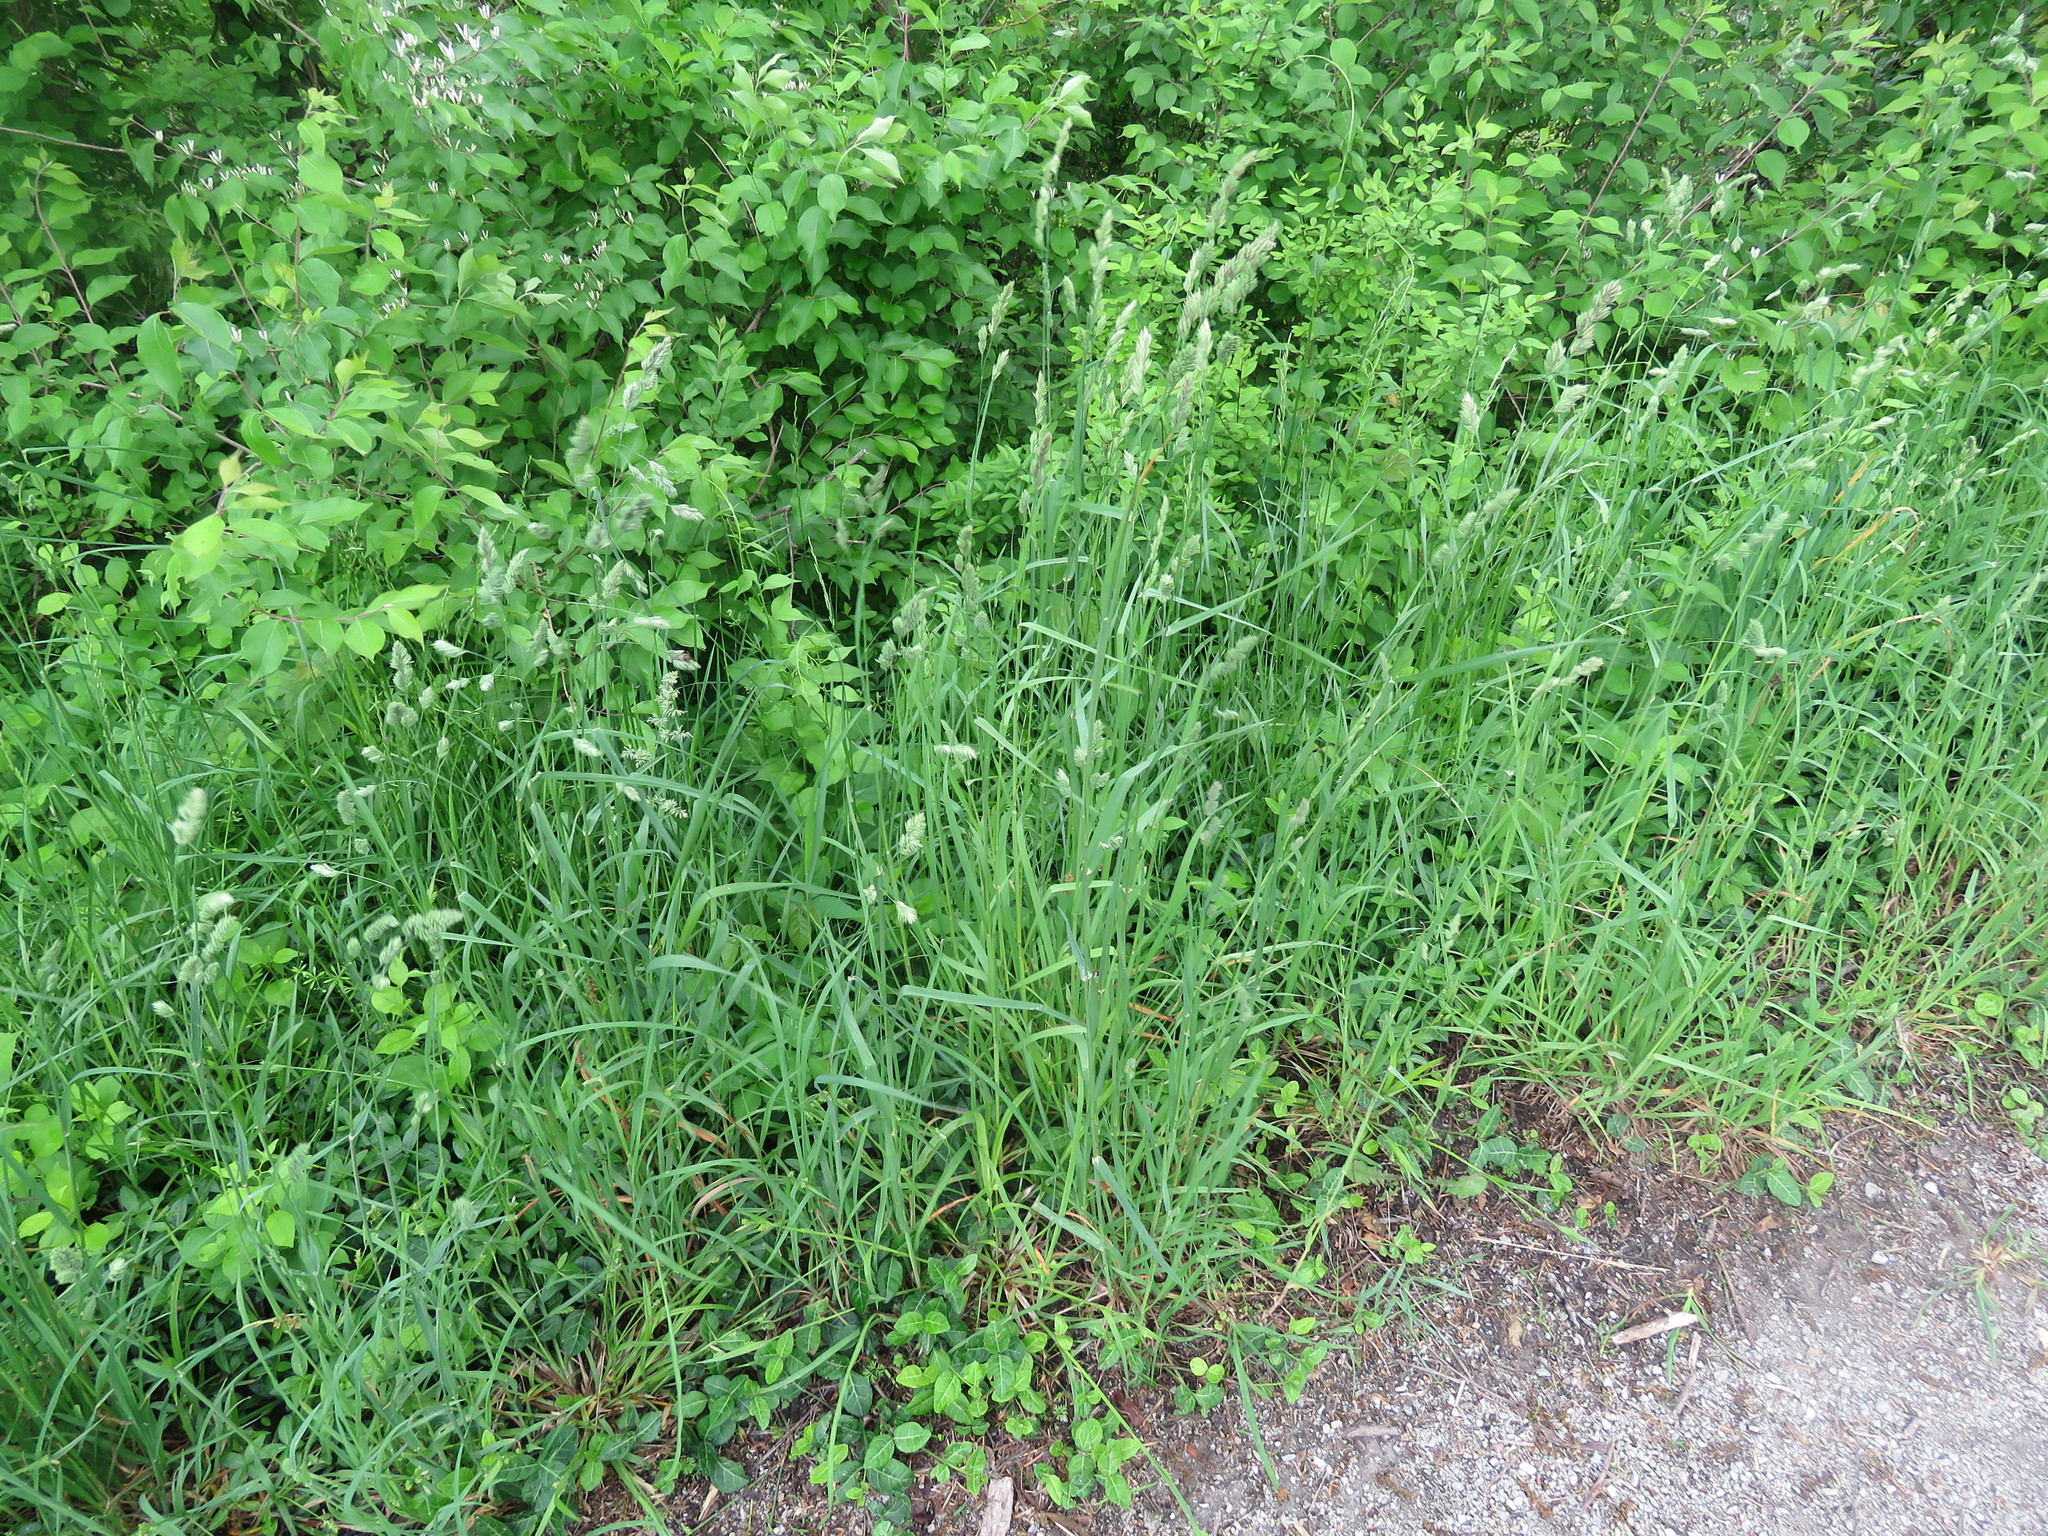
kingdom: Plantae
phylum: Tracheophyta
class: Liliopsida
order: Poales
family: Poaceae
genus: Dactylis
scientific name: Dactylis glomerata
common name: Orchardgrass
